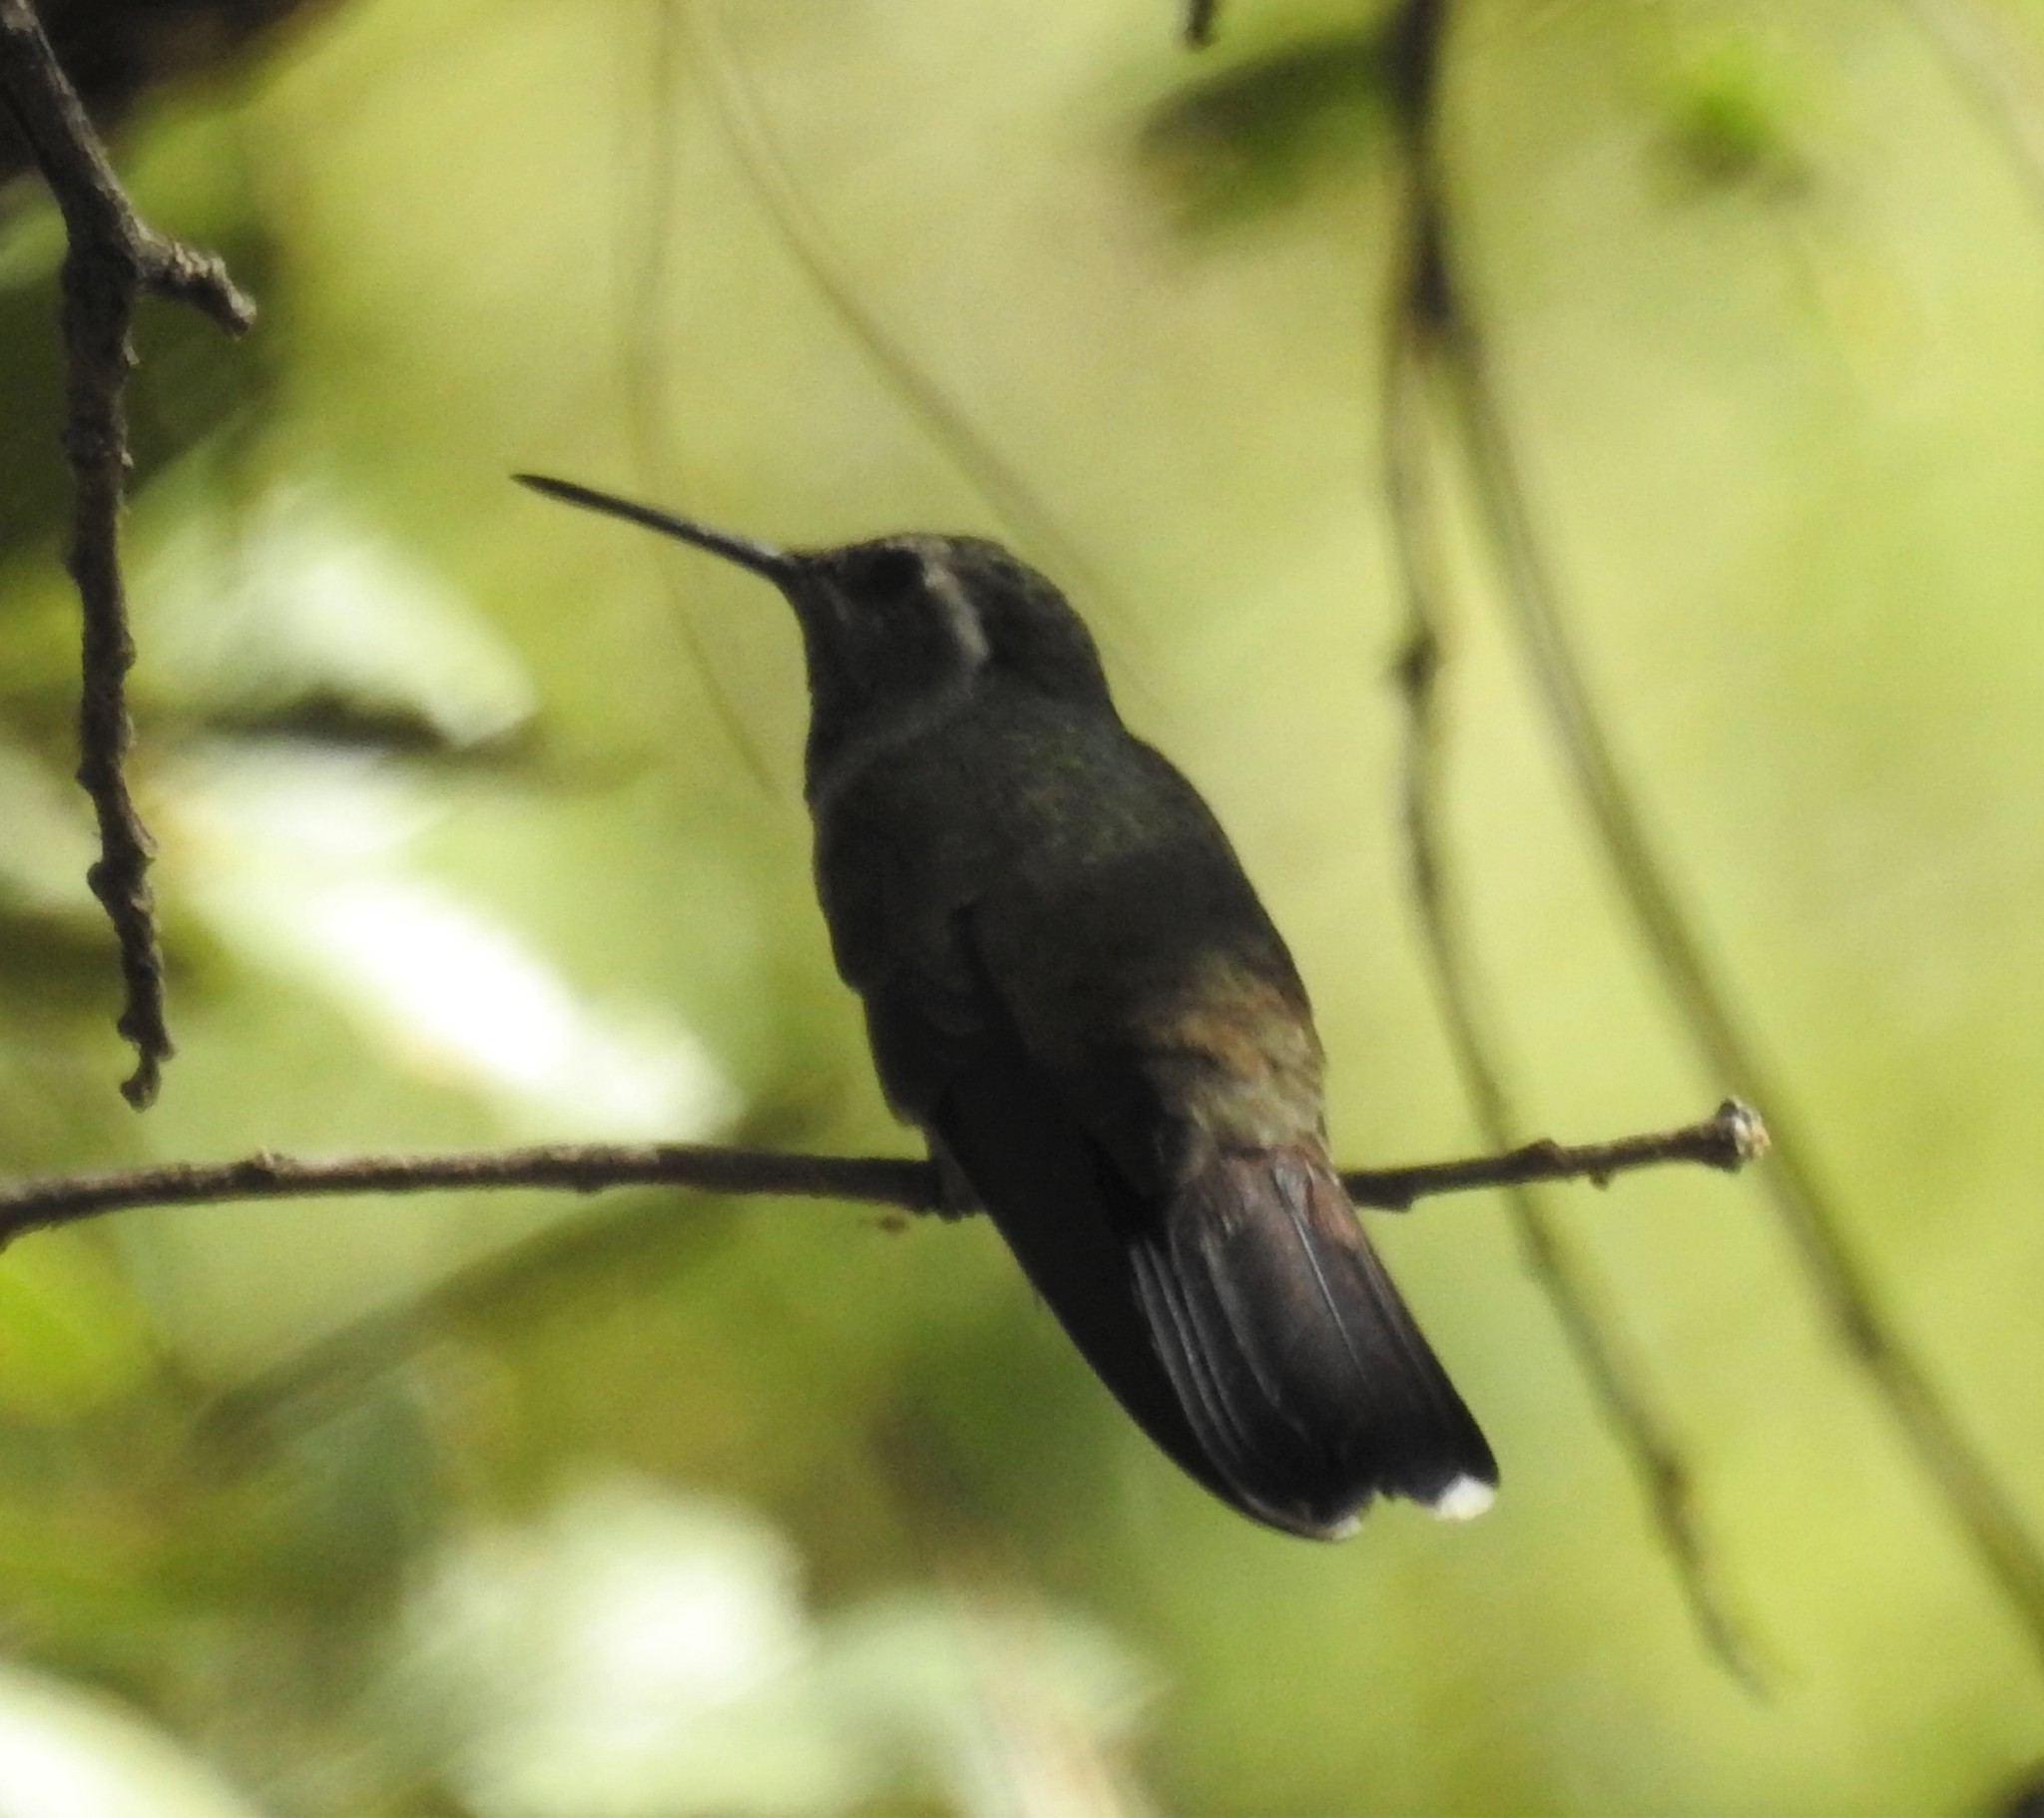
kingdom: Animalia
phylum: Chordata
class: Aves
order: Apodiformes
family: Trochilidae
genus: Lampornis
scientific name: Lampornis clemenciae
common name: Blue-throated mountaingem
